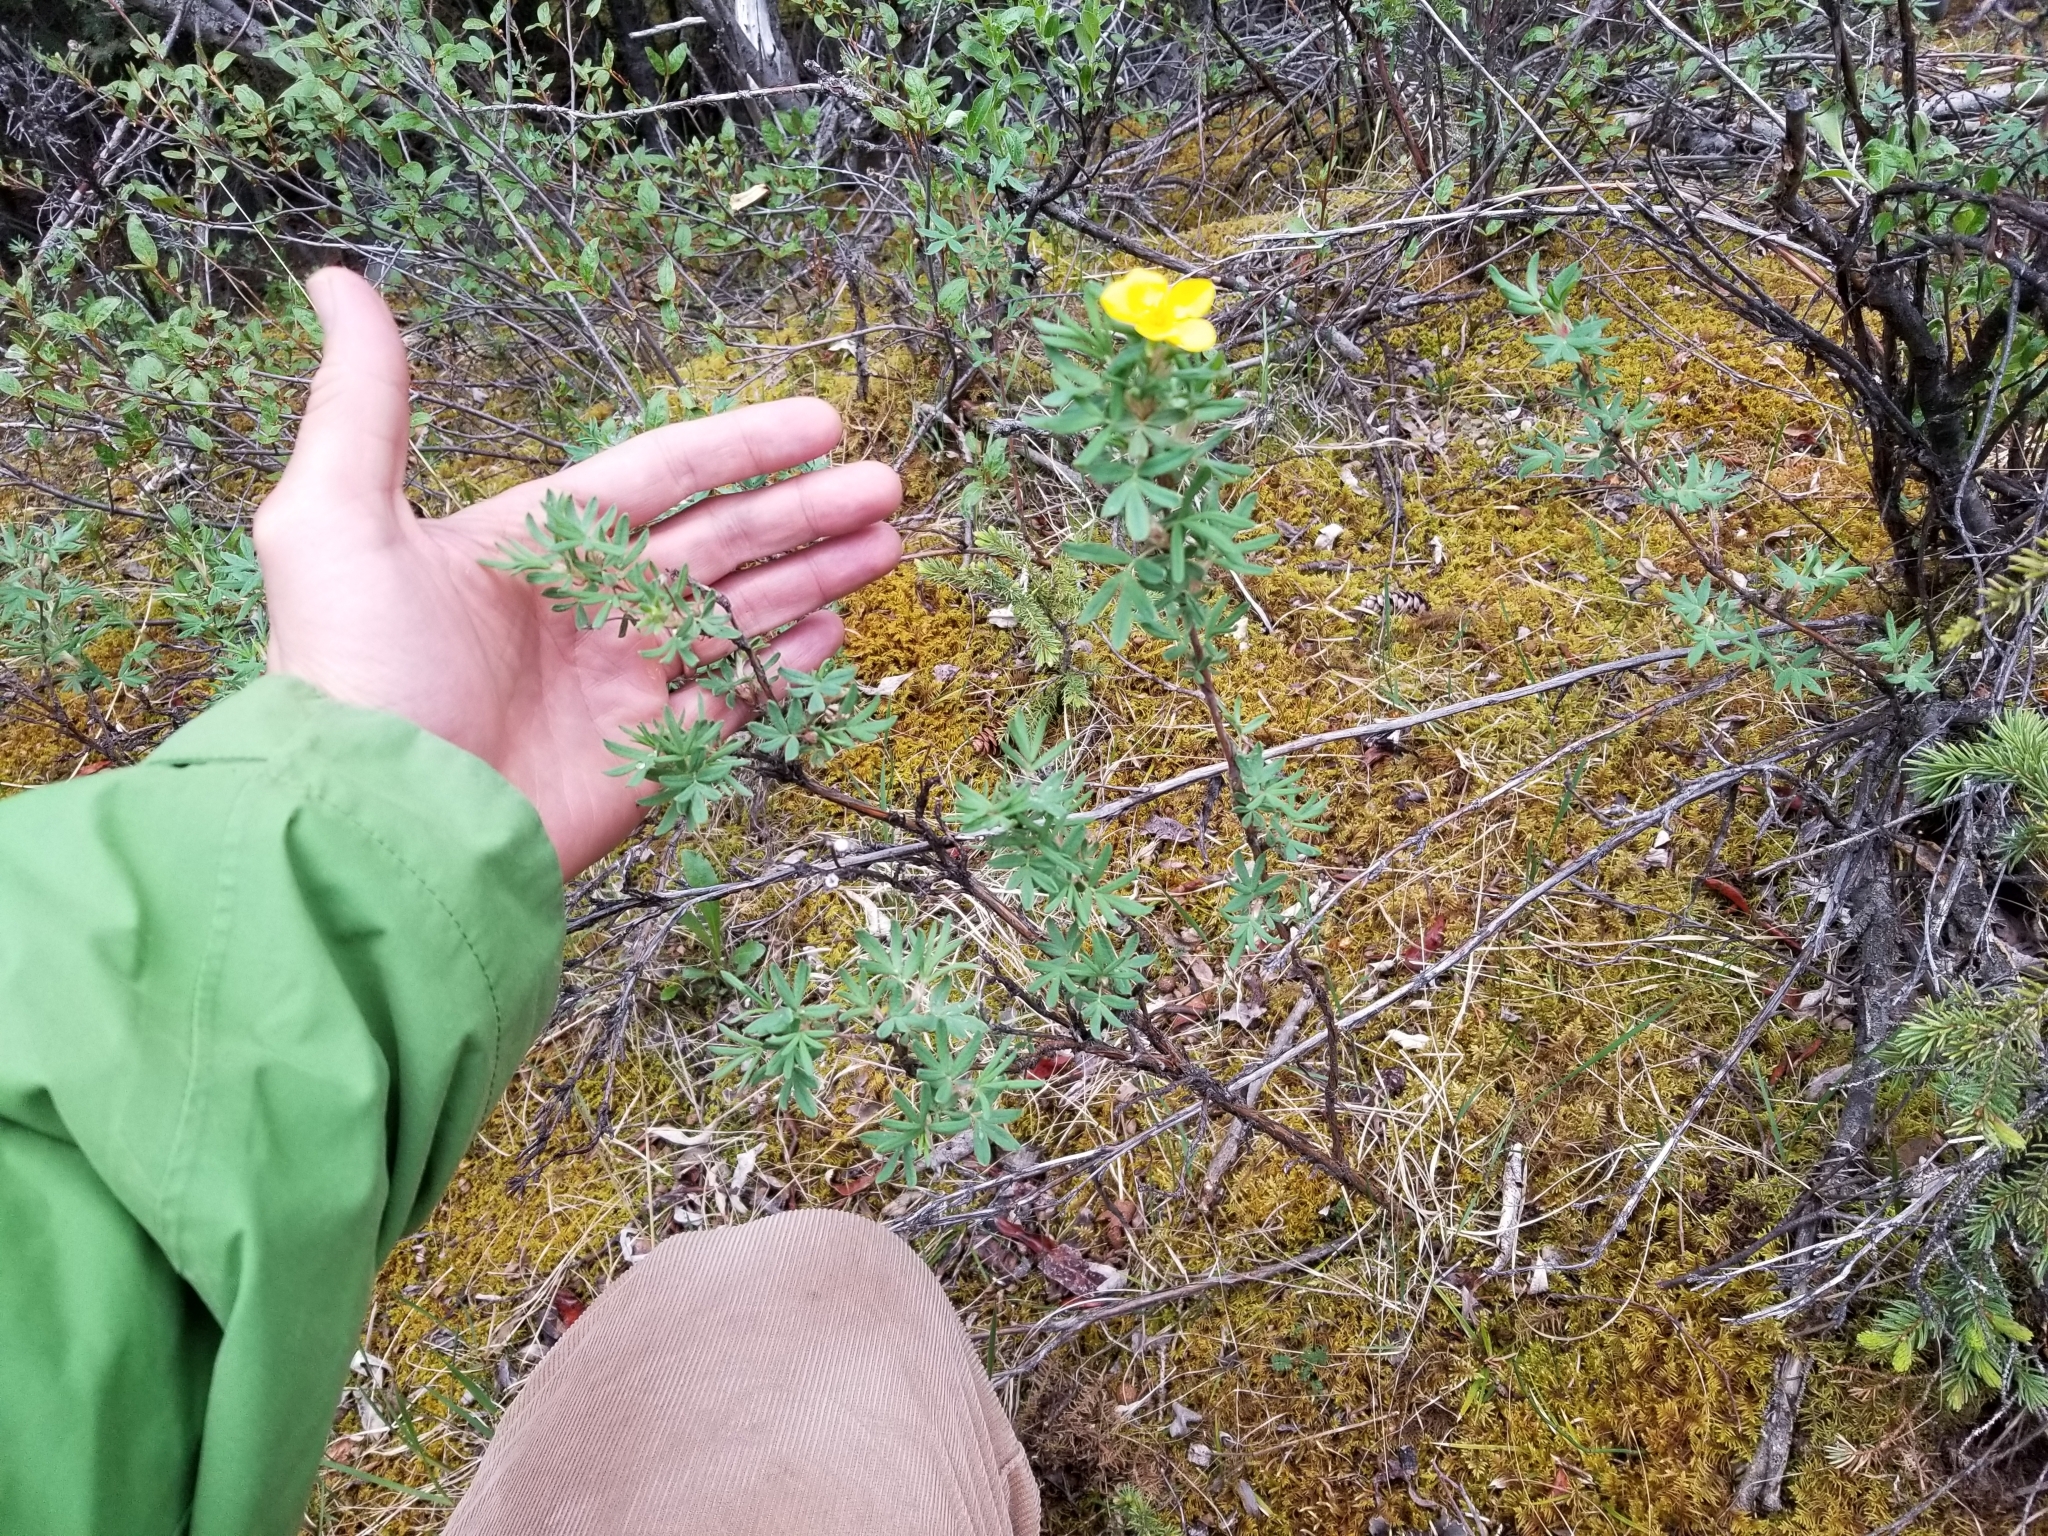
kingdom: Plantae
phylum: Tracheophyta
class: Magnoliopsida
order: Rosales
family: Rosaceae
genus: Dasiphora
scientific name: Dasiphora fruticosa
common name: Shrubby cinquefoil
